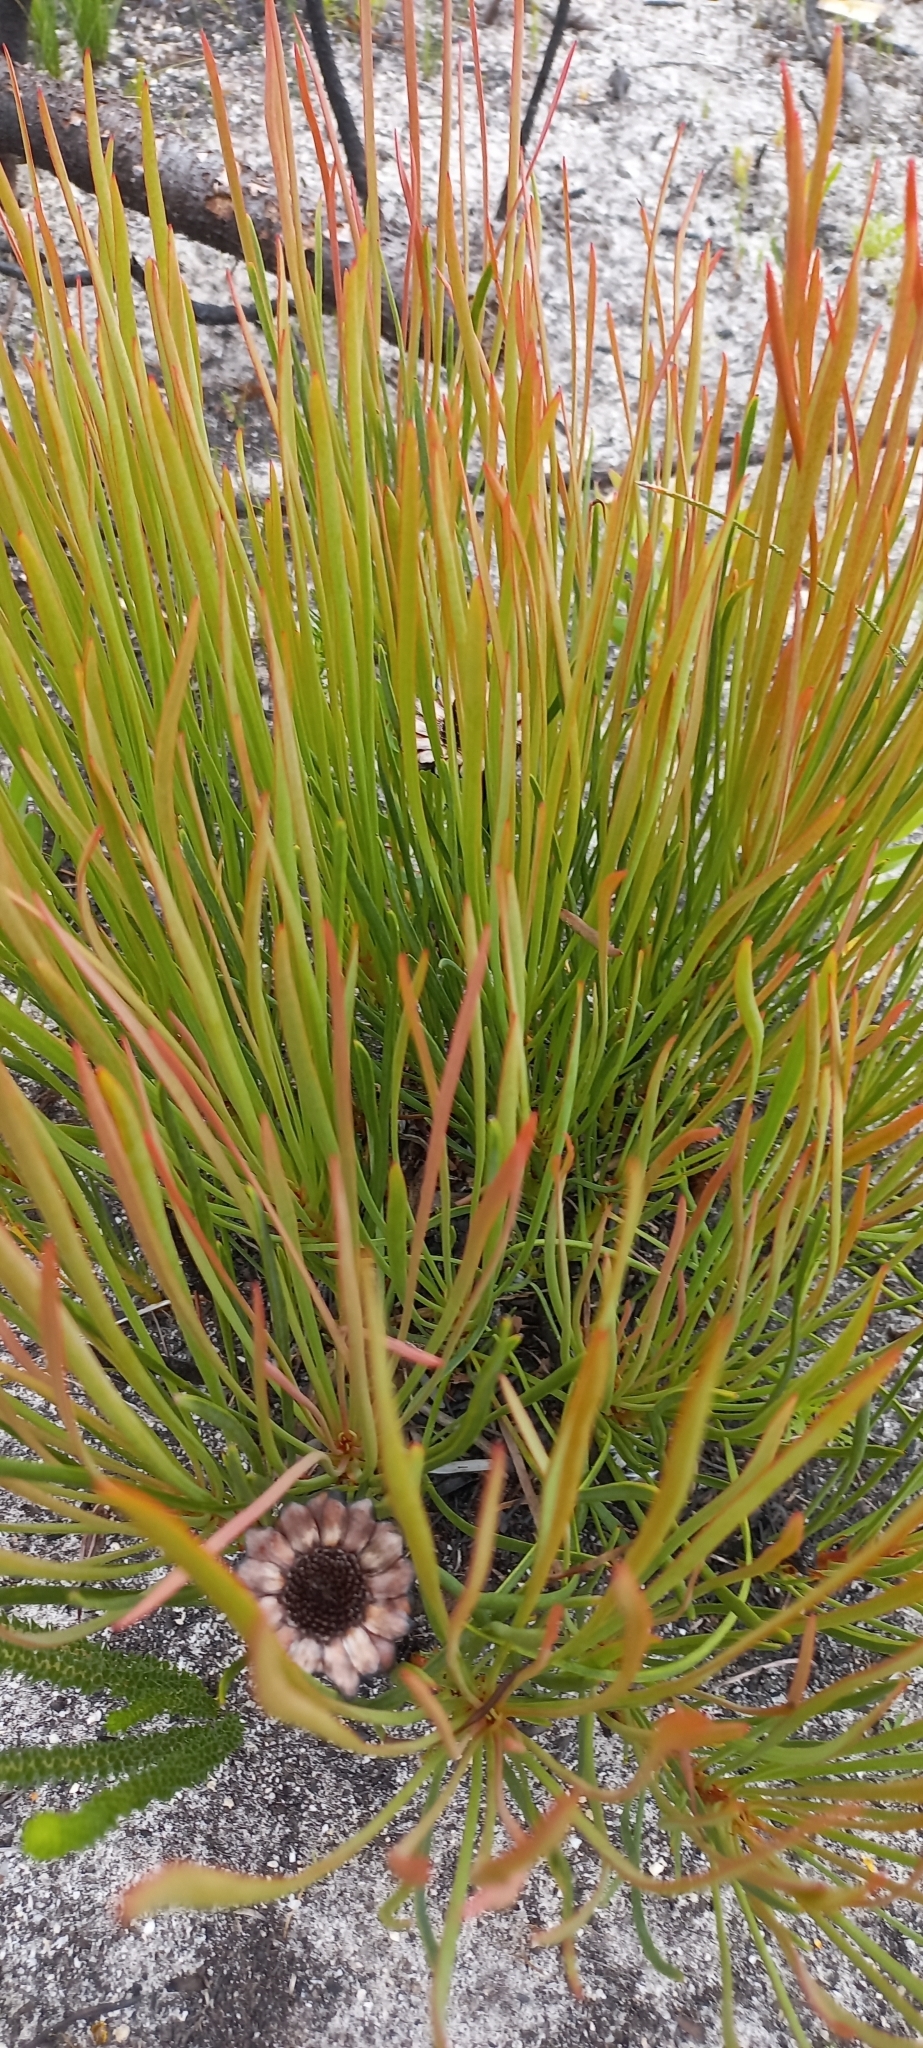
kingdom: Plantae
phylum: Tracheophyta
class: Magnoliopsida
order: Proteales
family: Proteaceae
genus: Protea
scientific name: Protea acuminata
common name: Black-rim sugarbush
